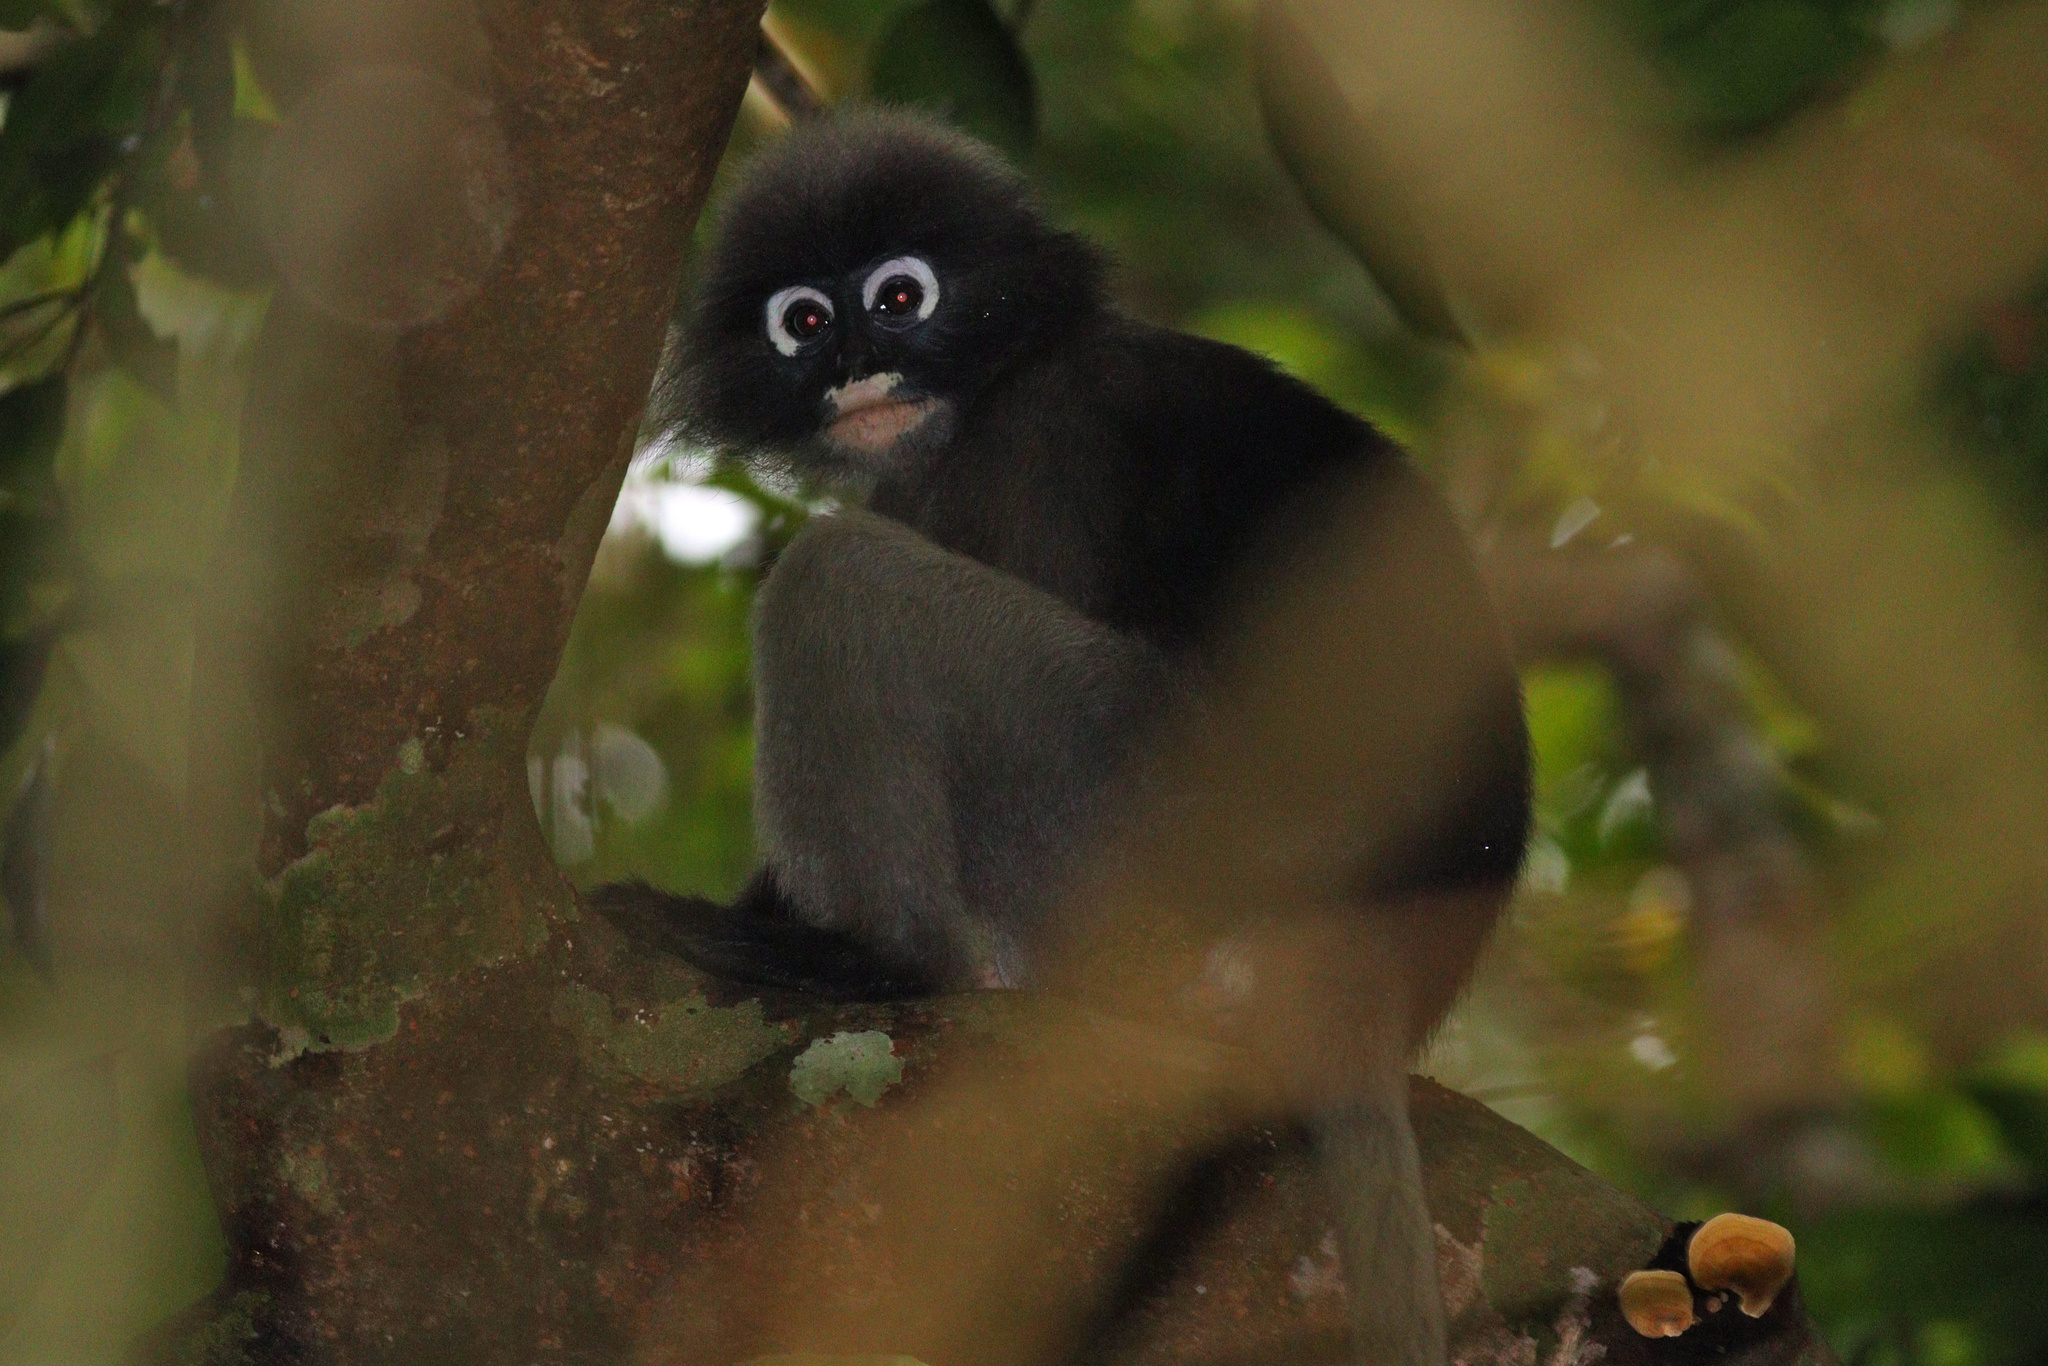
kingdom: Animalia
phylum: Chordata
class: Mammalia
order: Primates
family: Cercopithecidae
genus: Trachypithecus
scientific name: Trachypithecus obscurus
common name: Dusky leaf-monkey
